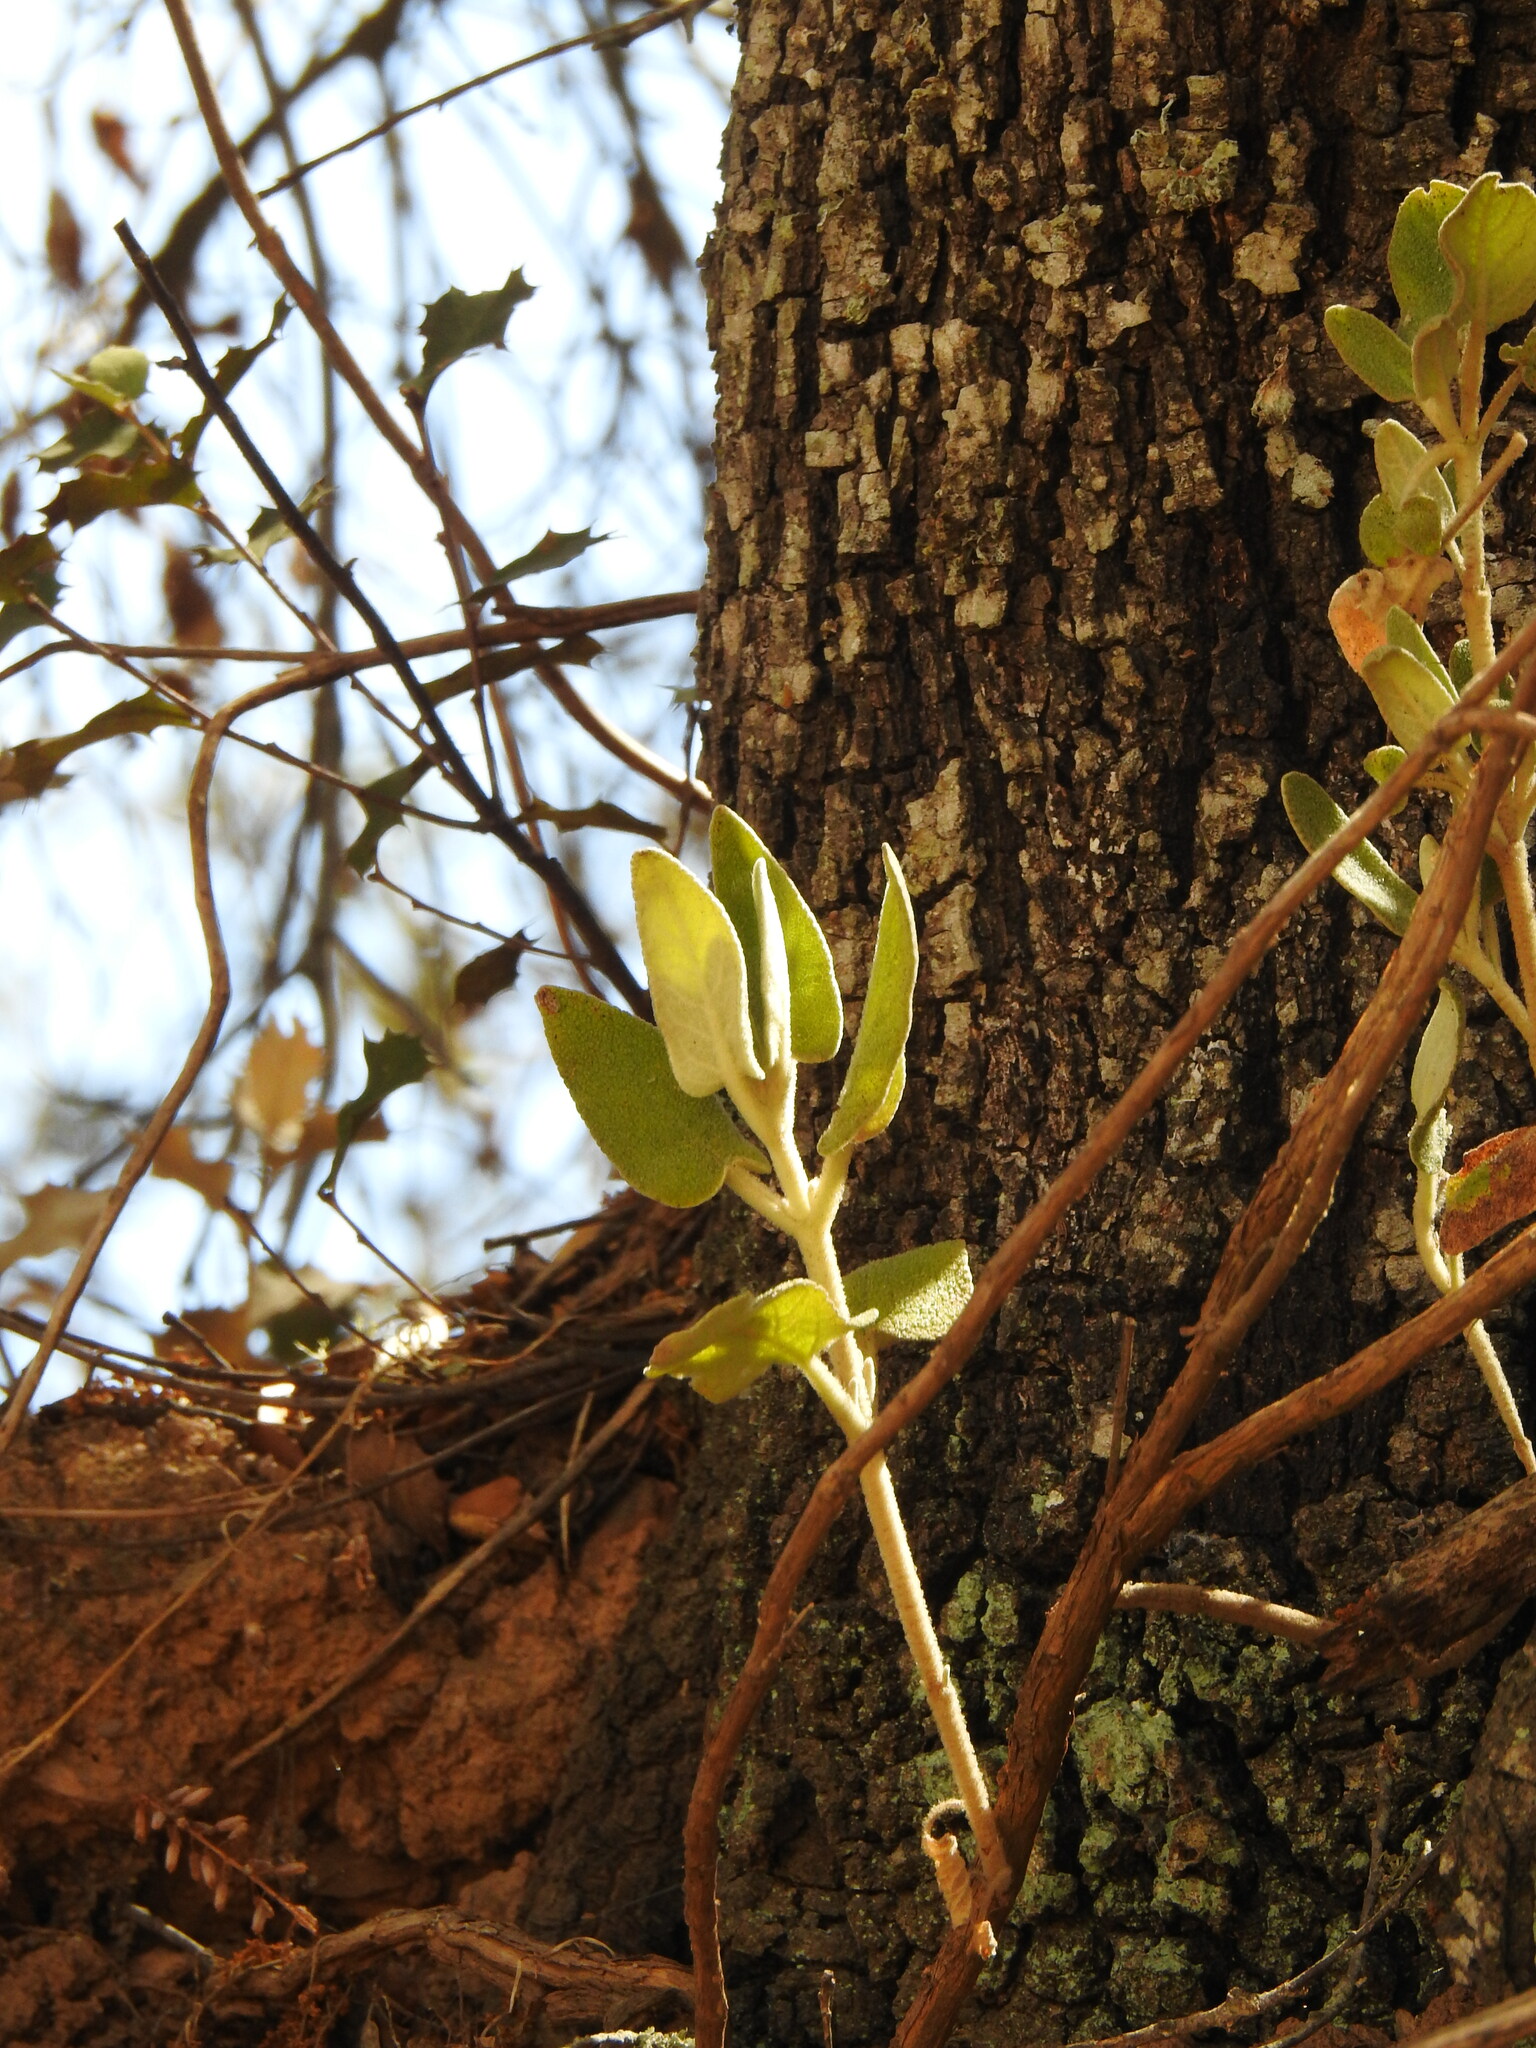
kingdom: Plantae
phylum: Tracheophyta
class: Magnoliopsida
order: Lamiales
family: Lamiaceae
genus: Phlomis
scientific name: Phlomis purpurea
